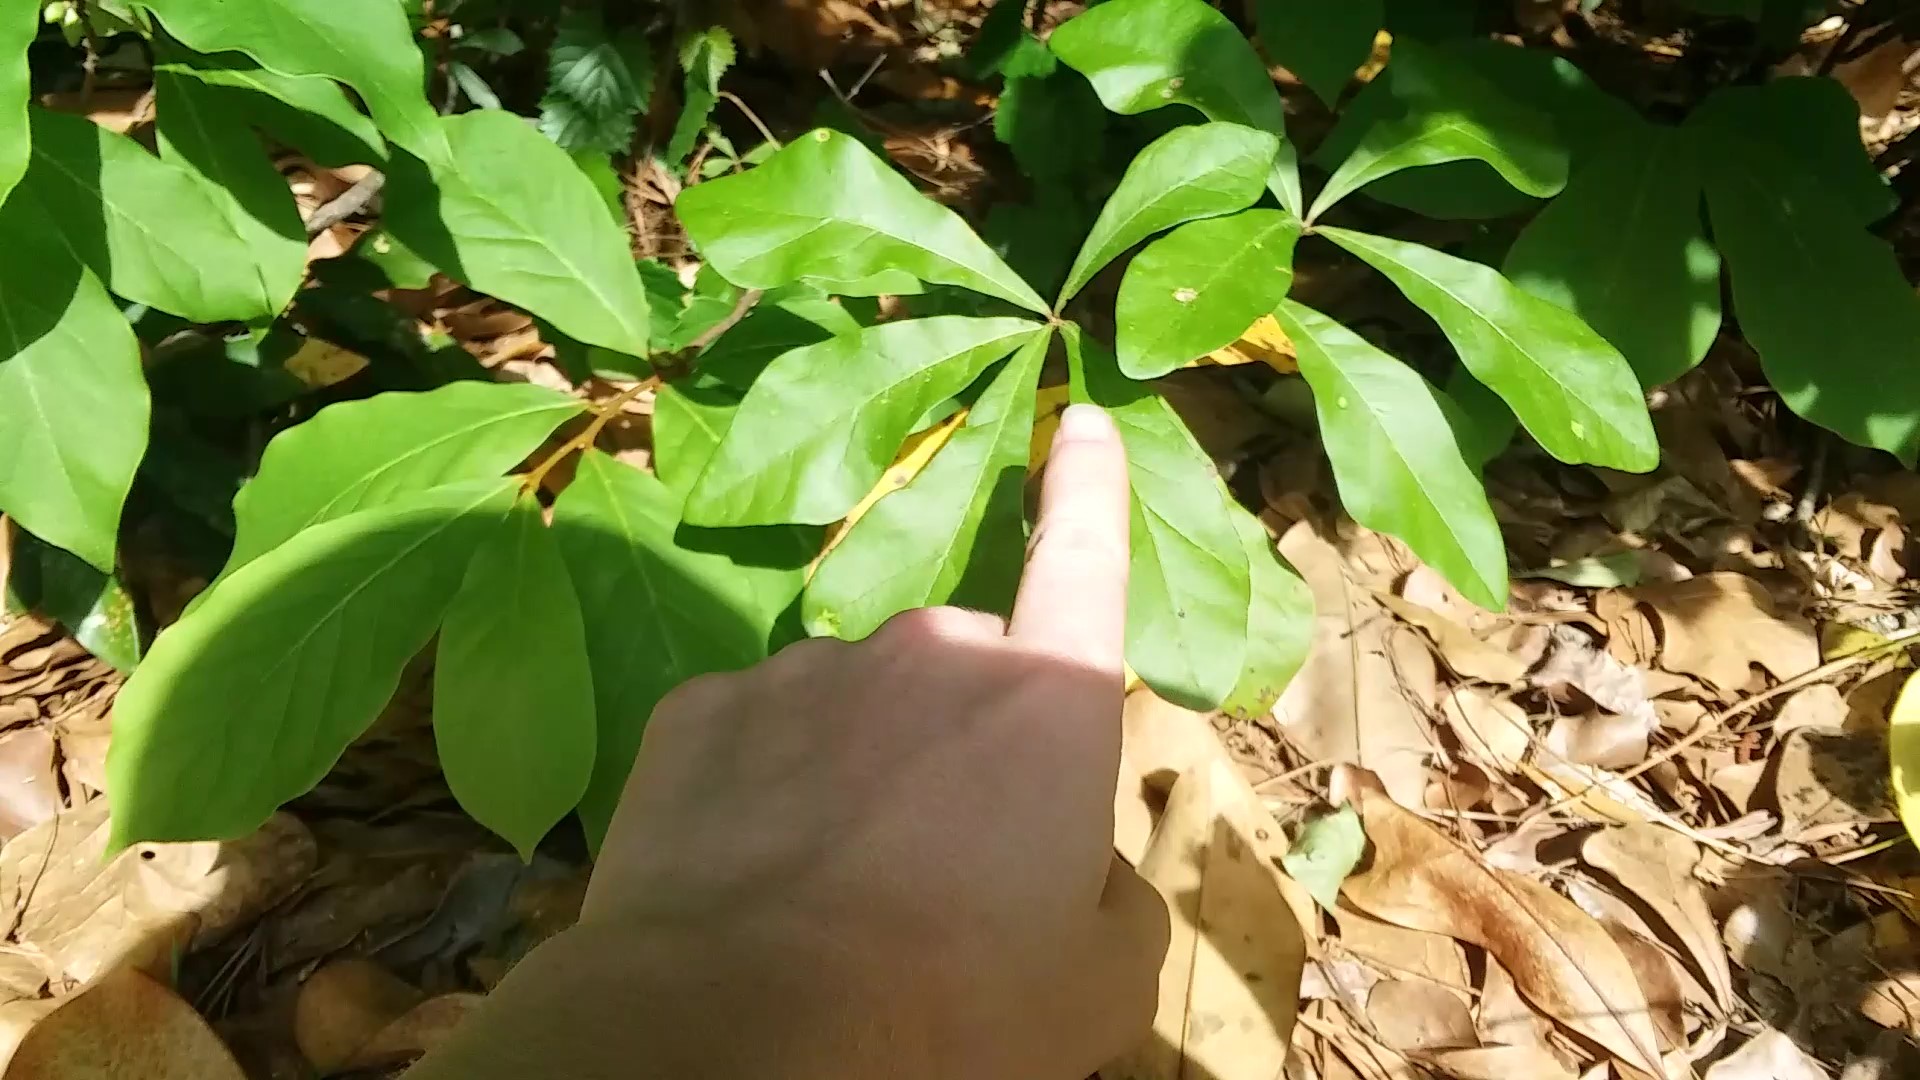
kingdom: Plantae
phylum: Tracheophyta
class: Magnoliopsida
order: Fagales
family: Fagaceae
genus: Quercus
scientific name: Quercus nigra
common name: Water oak
